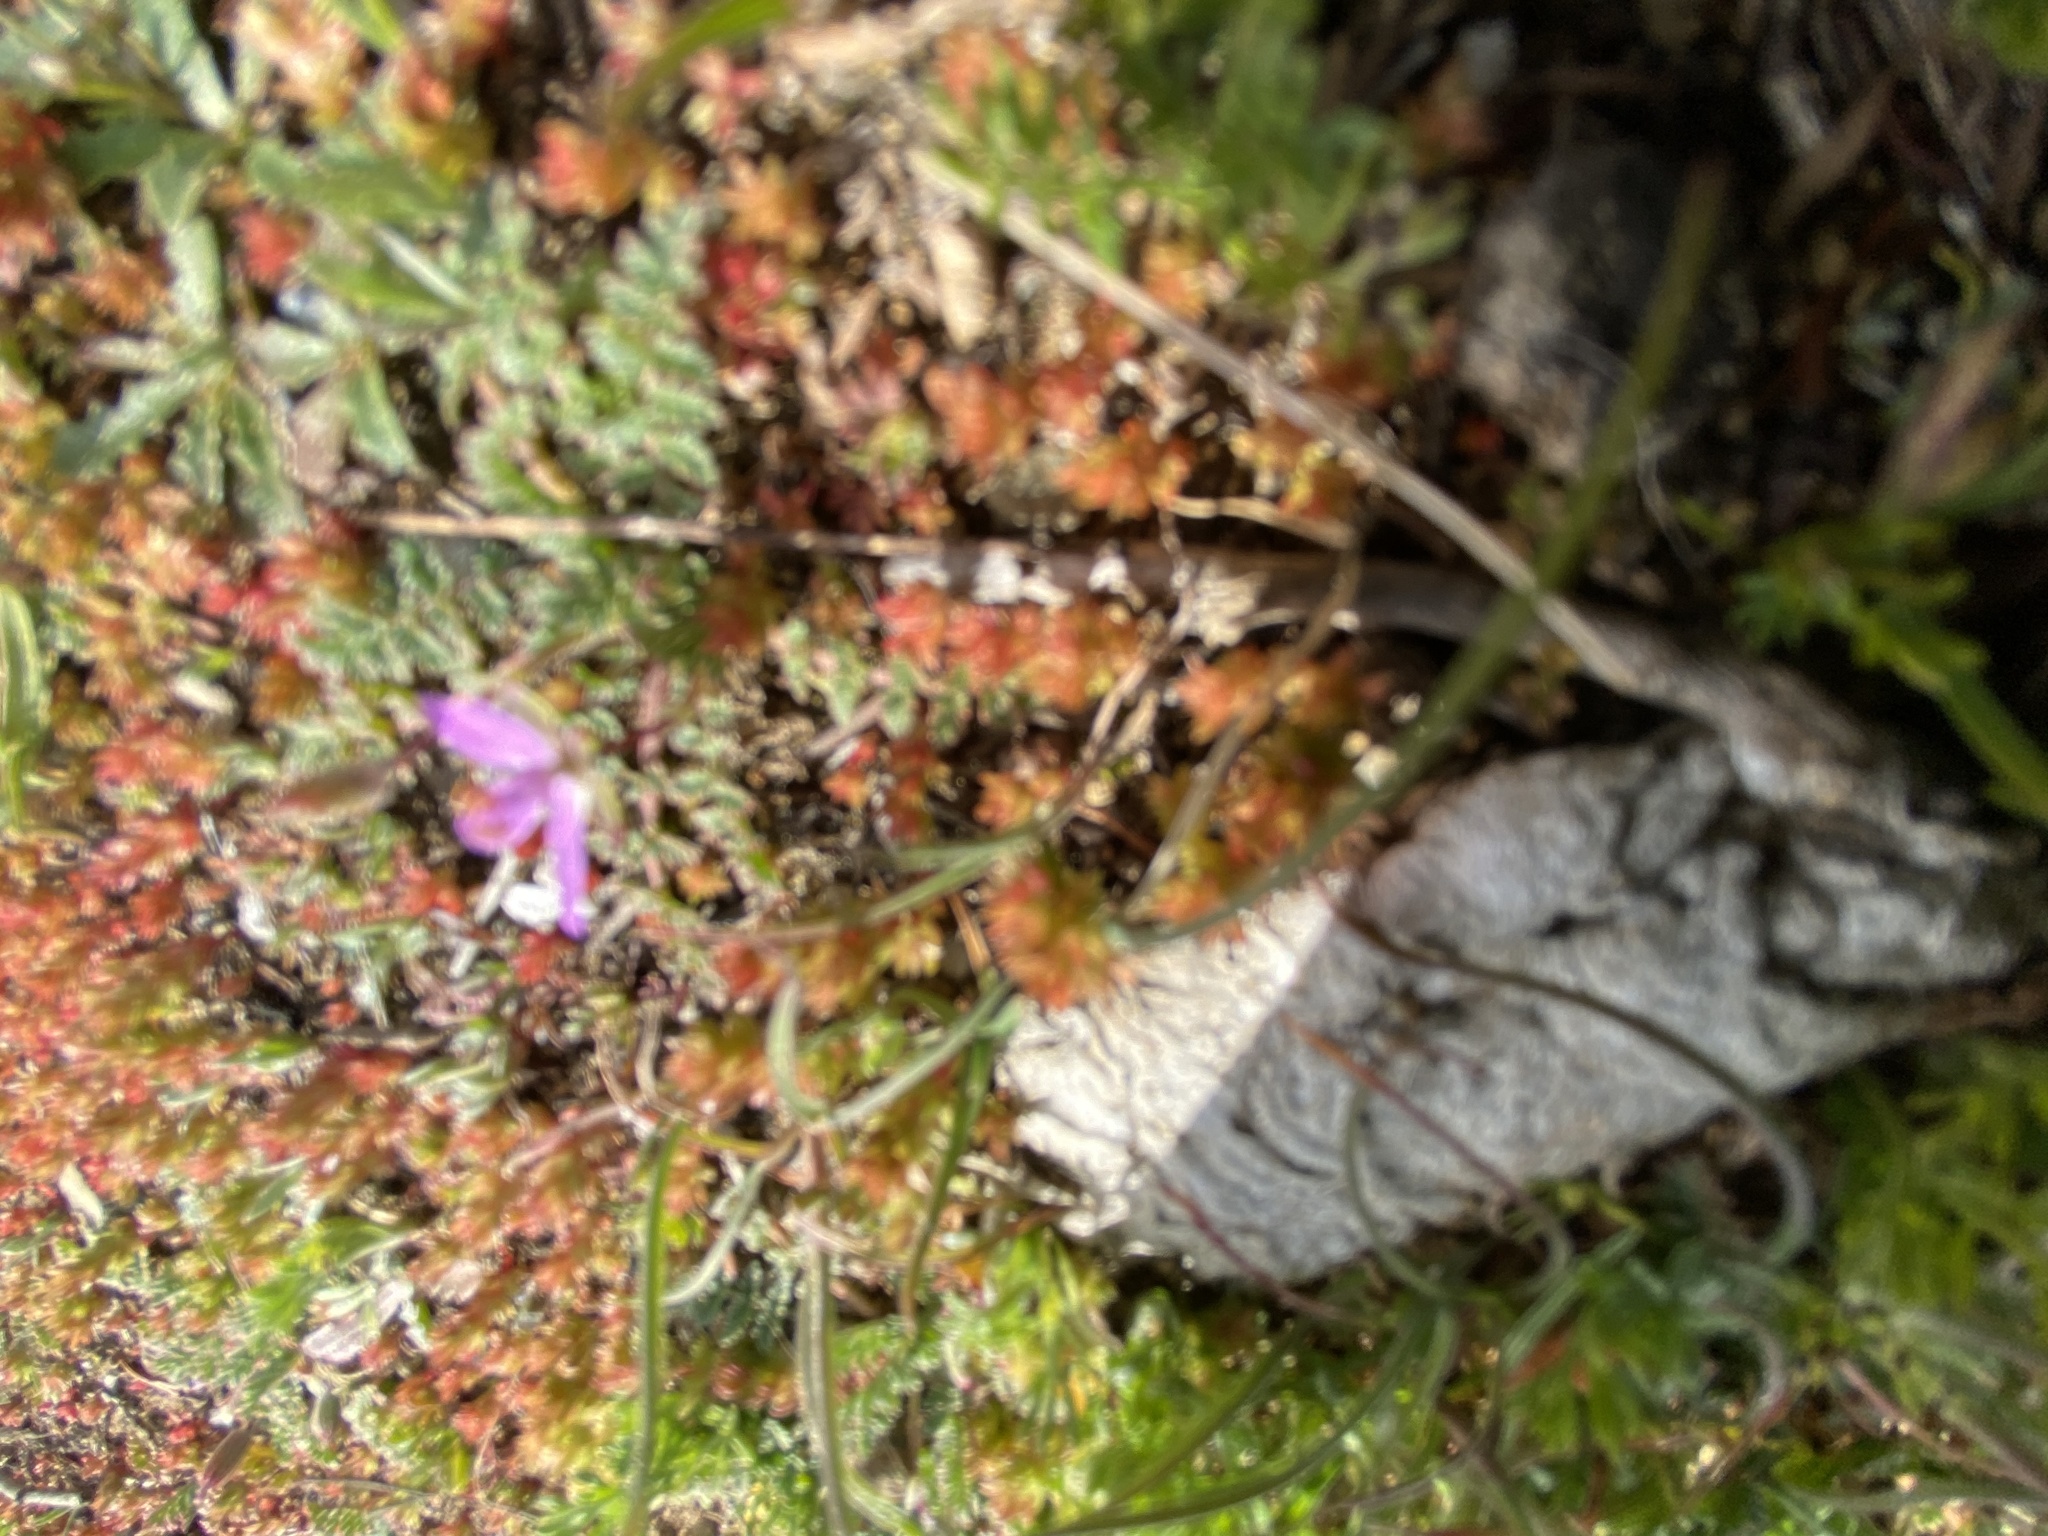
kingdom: Plantae
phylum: Tracheophyta
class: Magnoliopsida
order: Geraniales
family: Geraniaceae
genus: Erodium
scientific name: Erodium cicutarium
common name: Common stork's-bill
